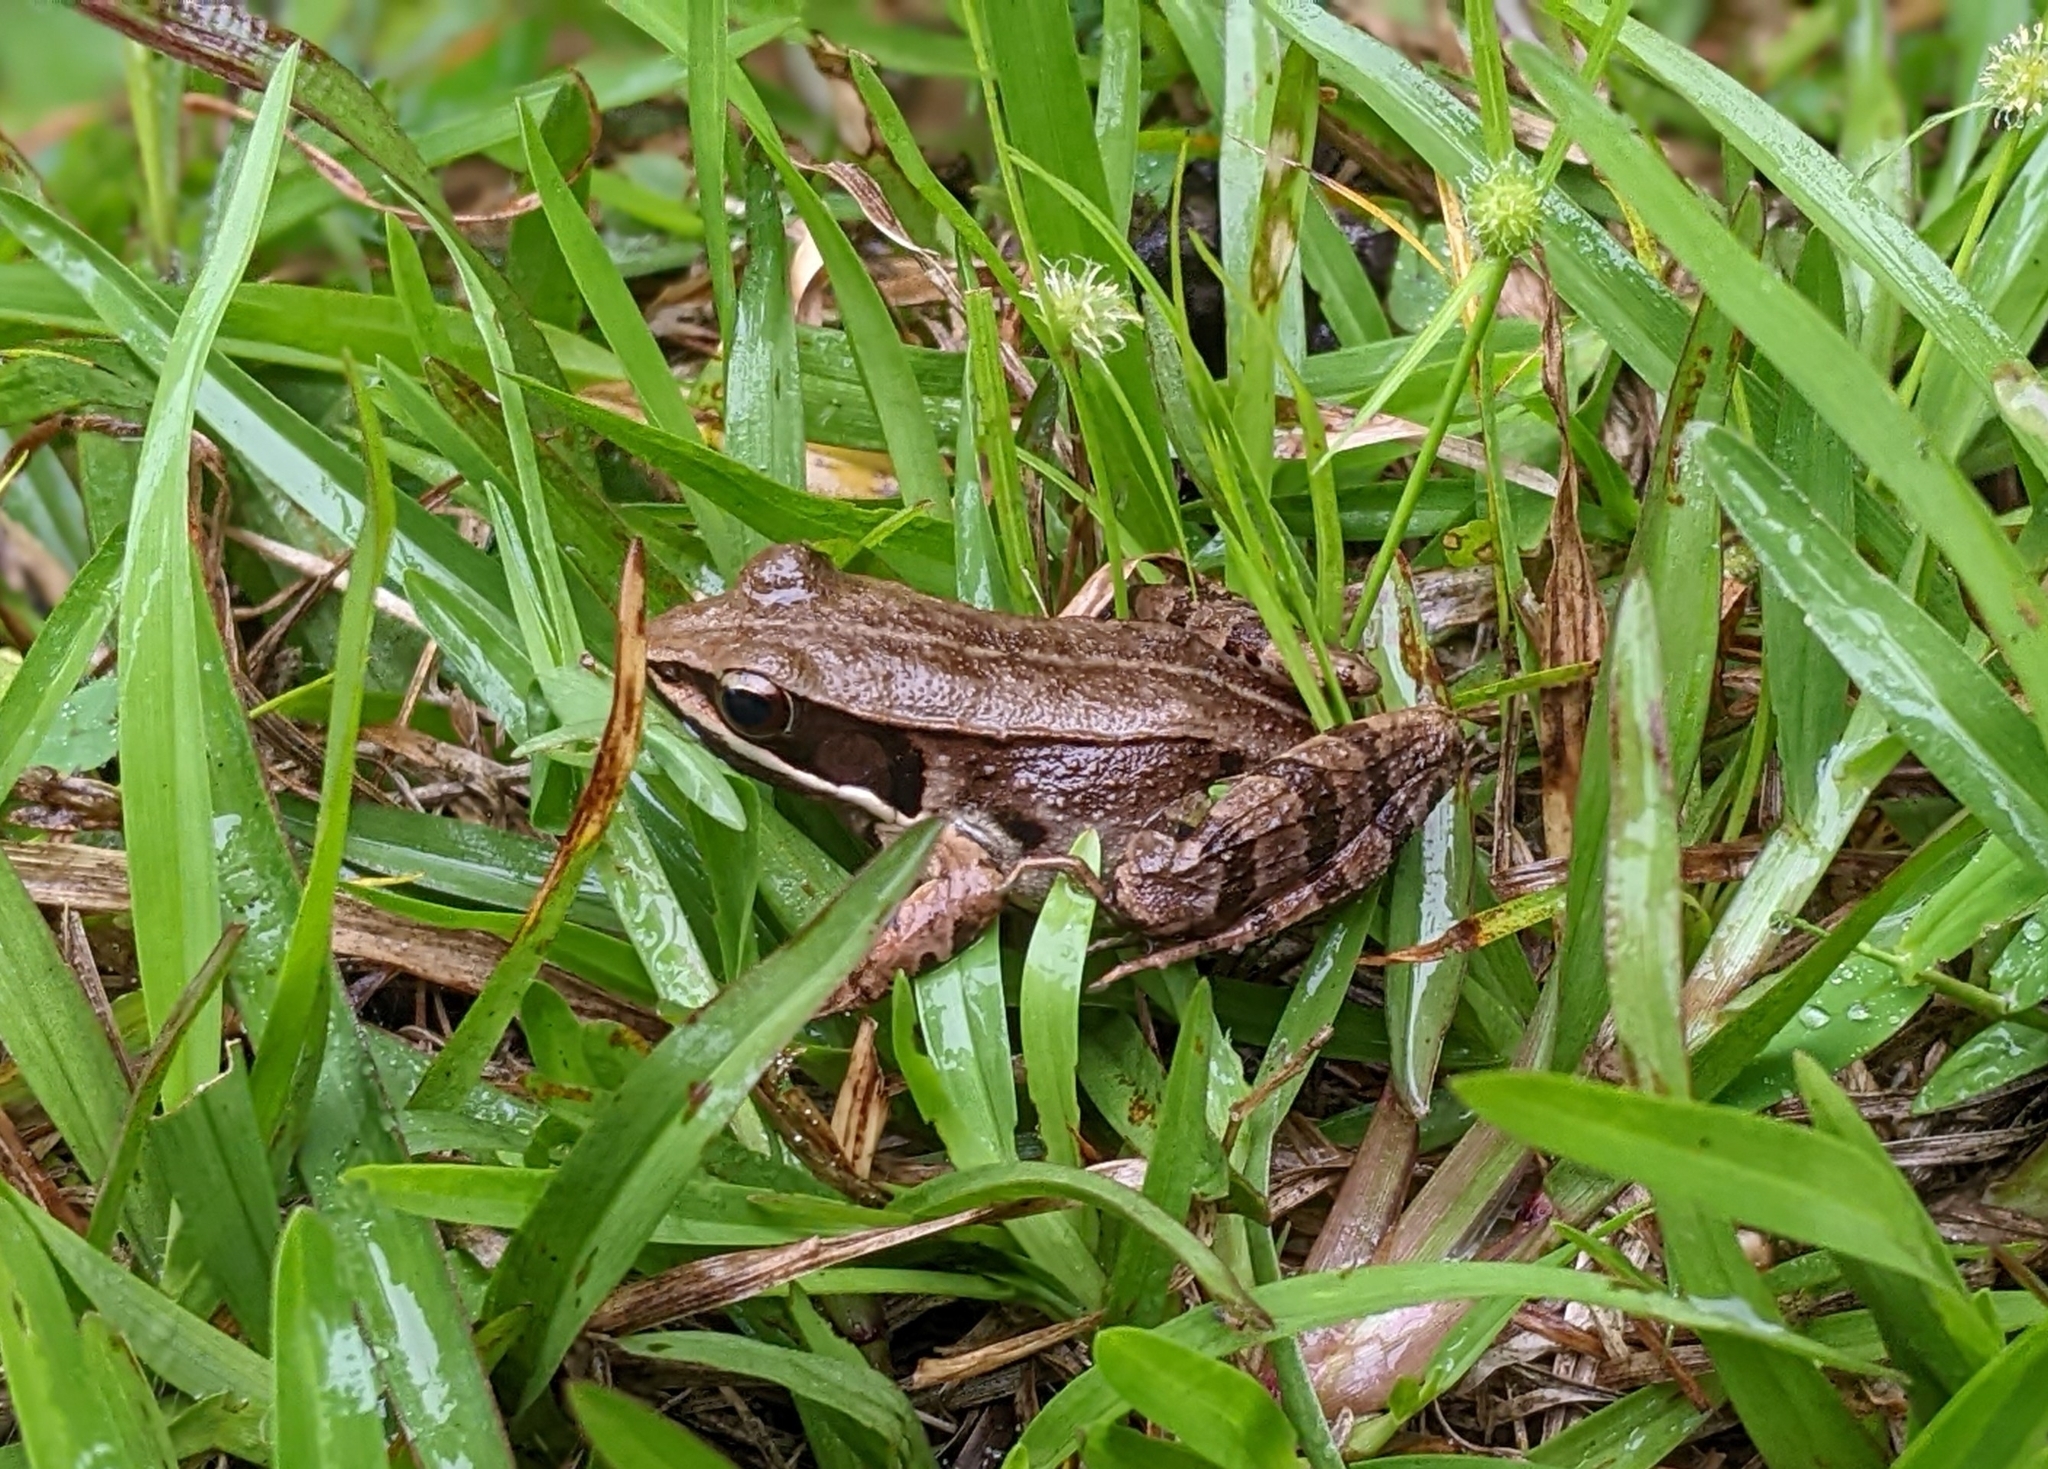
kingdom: Animalia
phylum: Chordata
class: Amphibia
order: Anura
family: Ranidae
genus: Nidirana
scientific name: Nidirana adenopleura
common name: Olive frog
